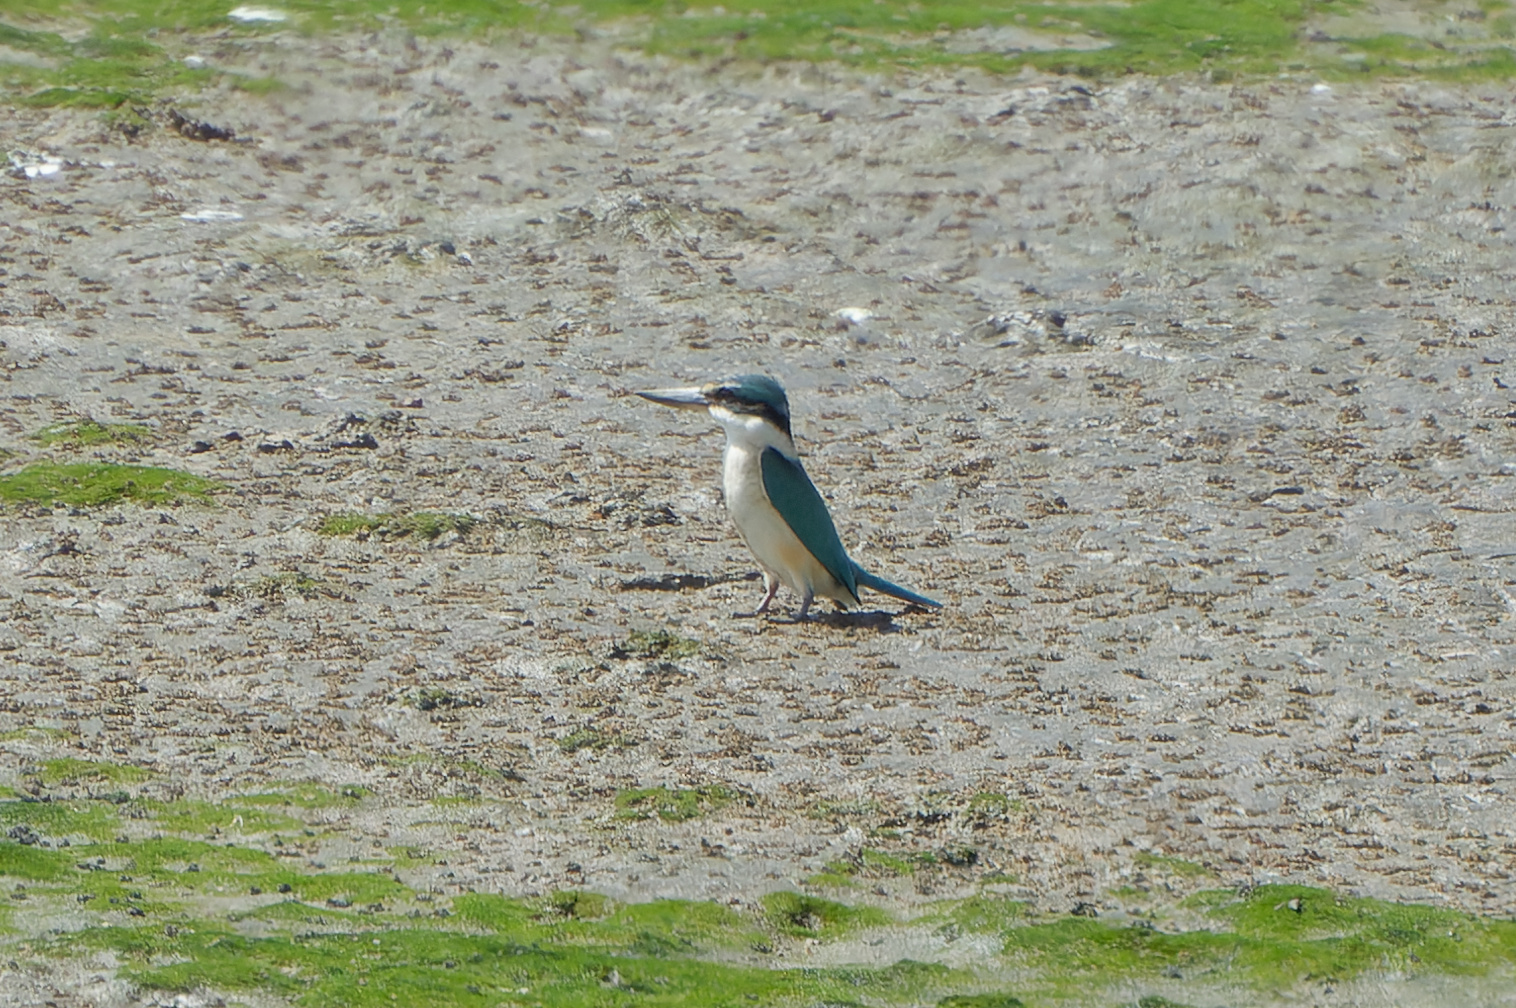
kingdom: Animalia
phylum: Chordata
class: Aves
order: Coraciiformes
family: Alcedinidae
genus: Todiramphus
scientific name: Todiramphus sanctus
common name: Sacred kingfisher
